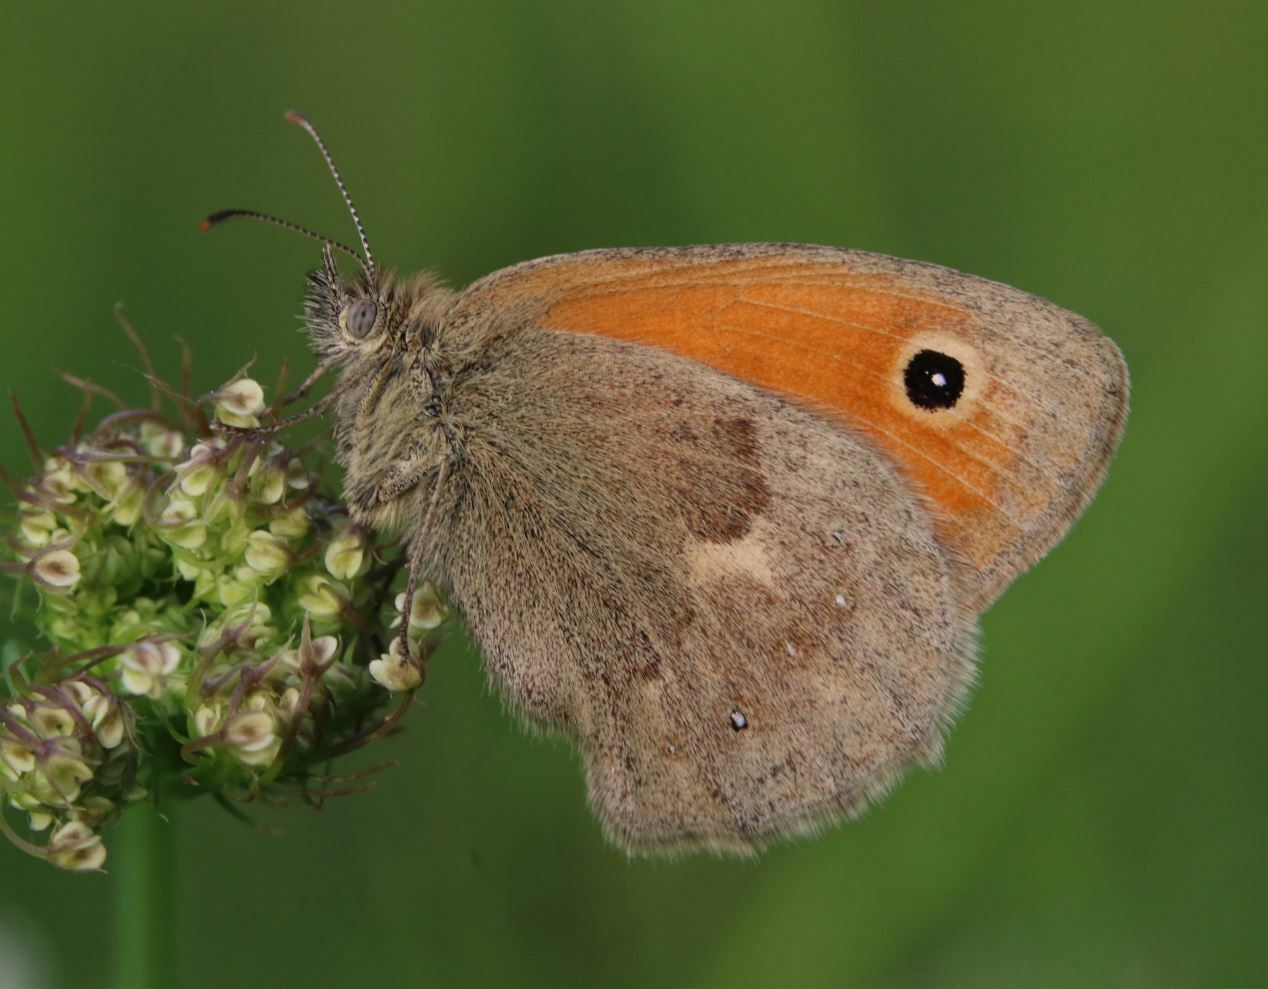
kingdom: Animalia
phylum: Arthropoda
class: Insecta
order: Lepidoptera
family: Nymphalidae
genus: Coenonympha
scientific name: Coenonympha pamphilus
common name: Small heath
